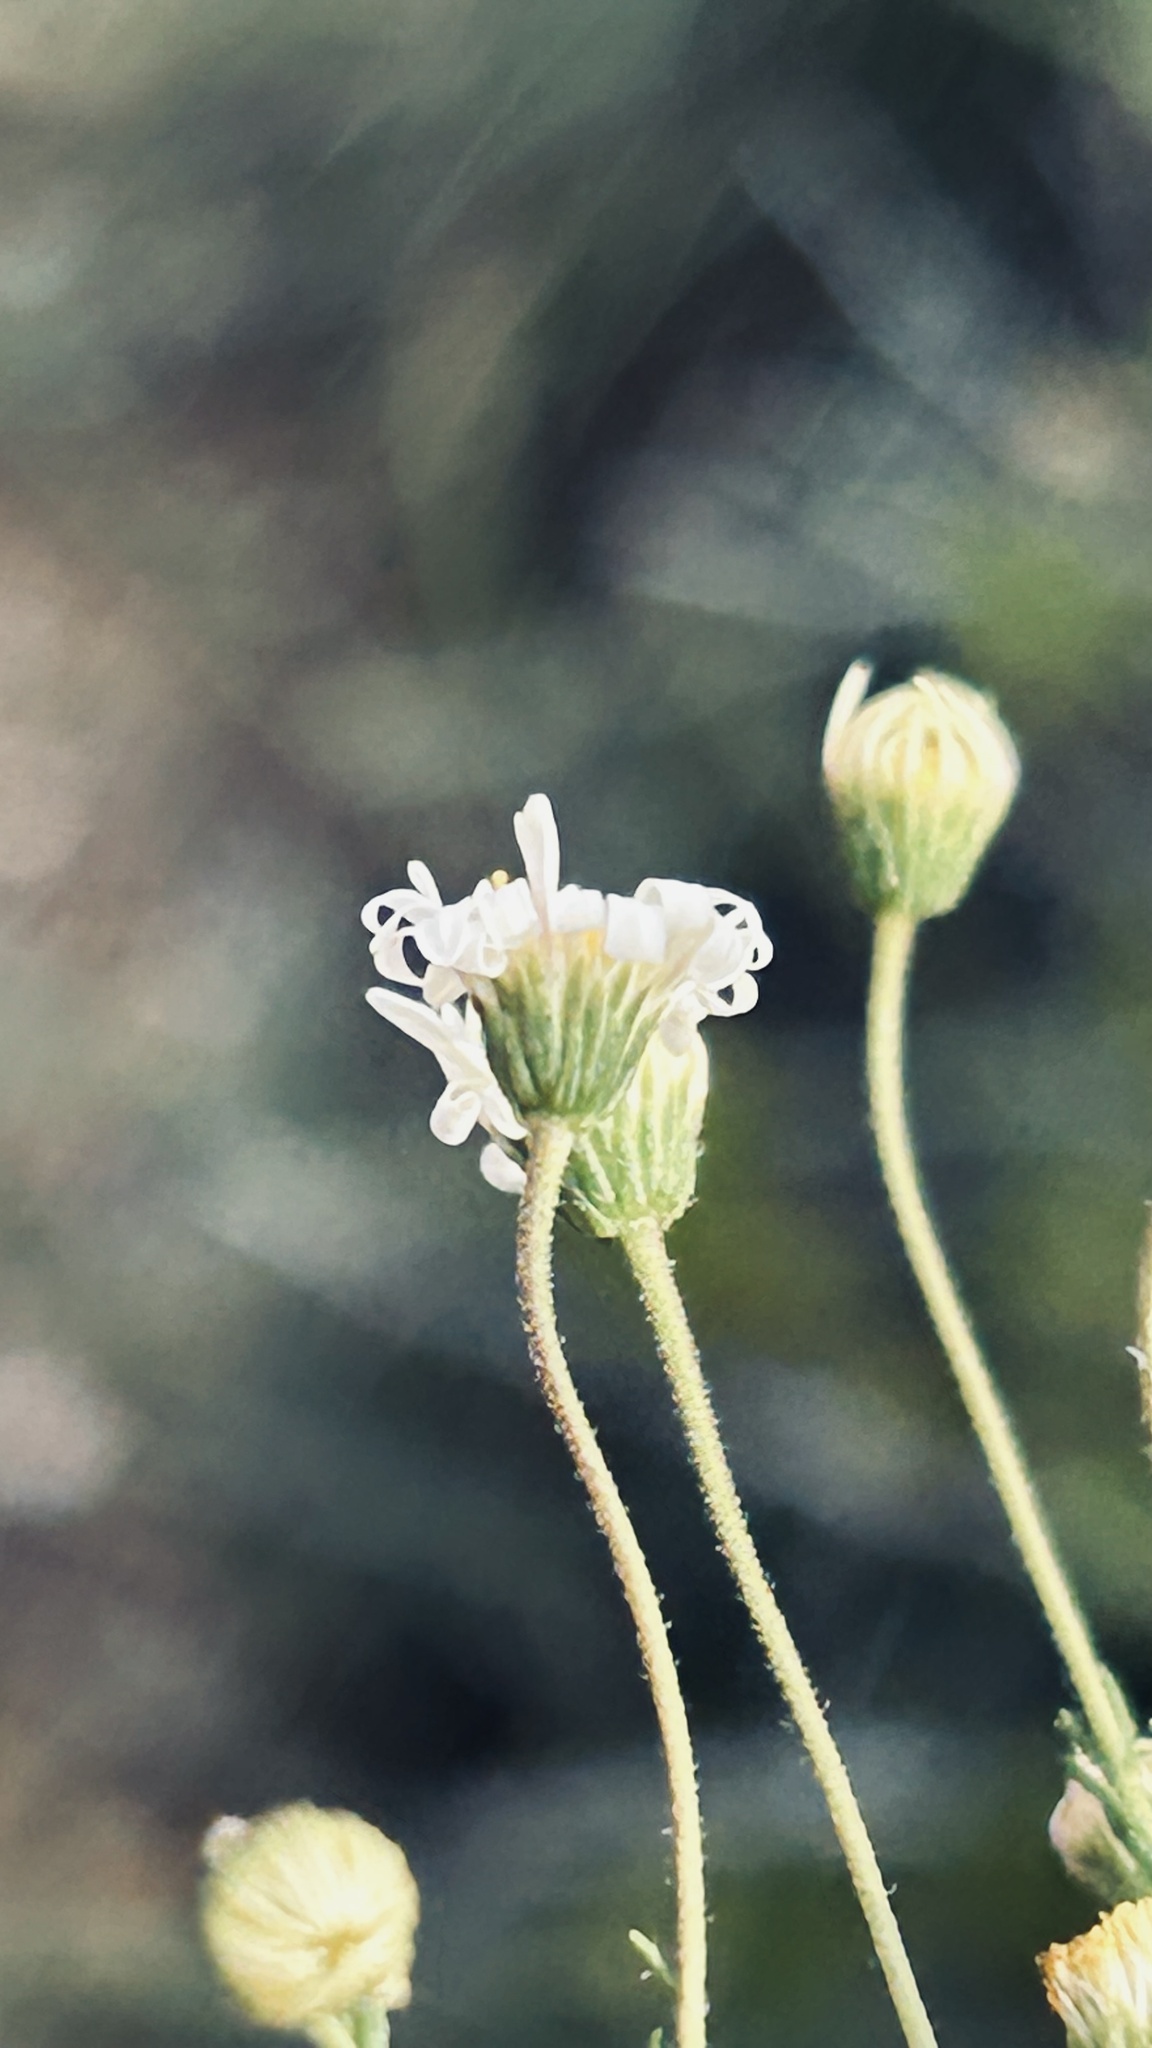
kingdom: Plantae
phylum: Tracheophyta
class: Magnoliopsida
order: Asterales
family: Asteraceae
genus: Felicia
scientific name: Felicia muricata
